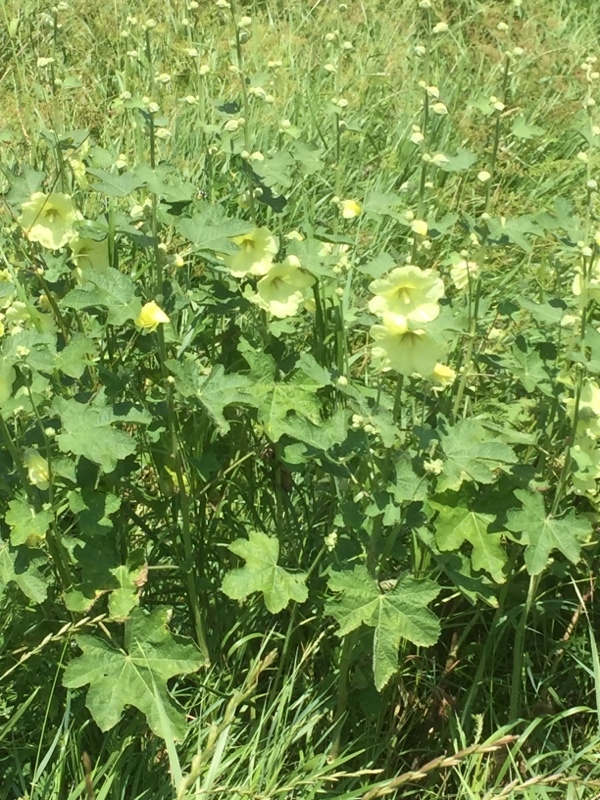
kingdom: Plantae
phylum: Tracheophyta
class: Magnoliopsida
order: Malvales
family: Malvaceae
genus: Alcea
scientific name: Alcea rugosa
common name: Russian hollyhock
